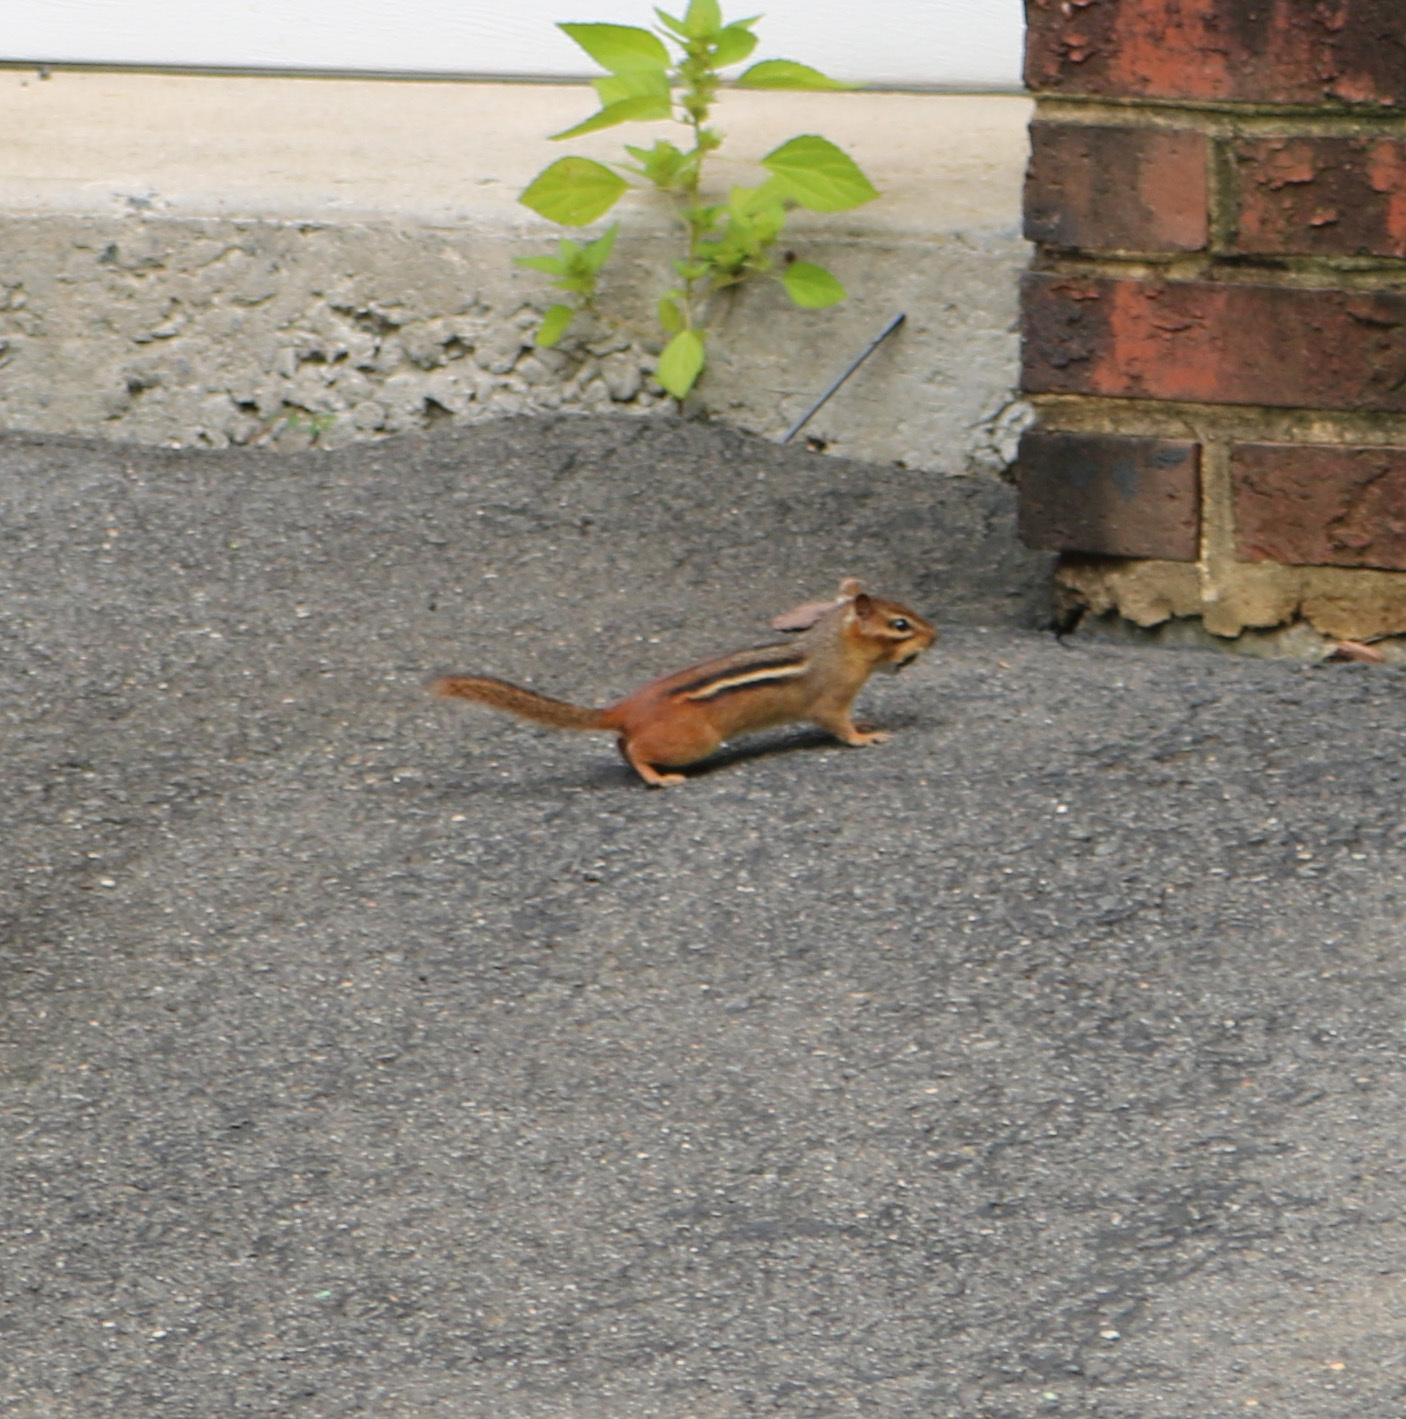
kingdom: Animalia
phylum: Chordata
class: Mammalia
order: Rodentia
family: Sciuridae
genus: Tamias
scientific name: Tamias striatus
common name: Eastern chipmunk
